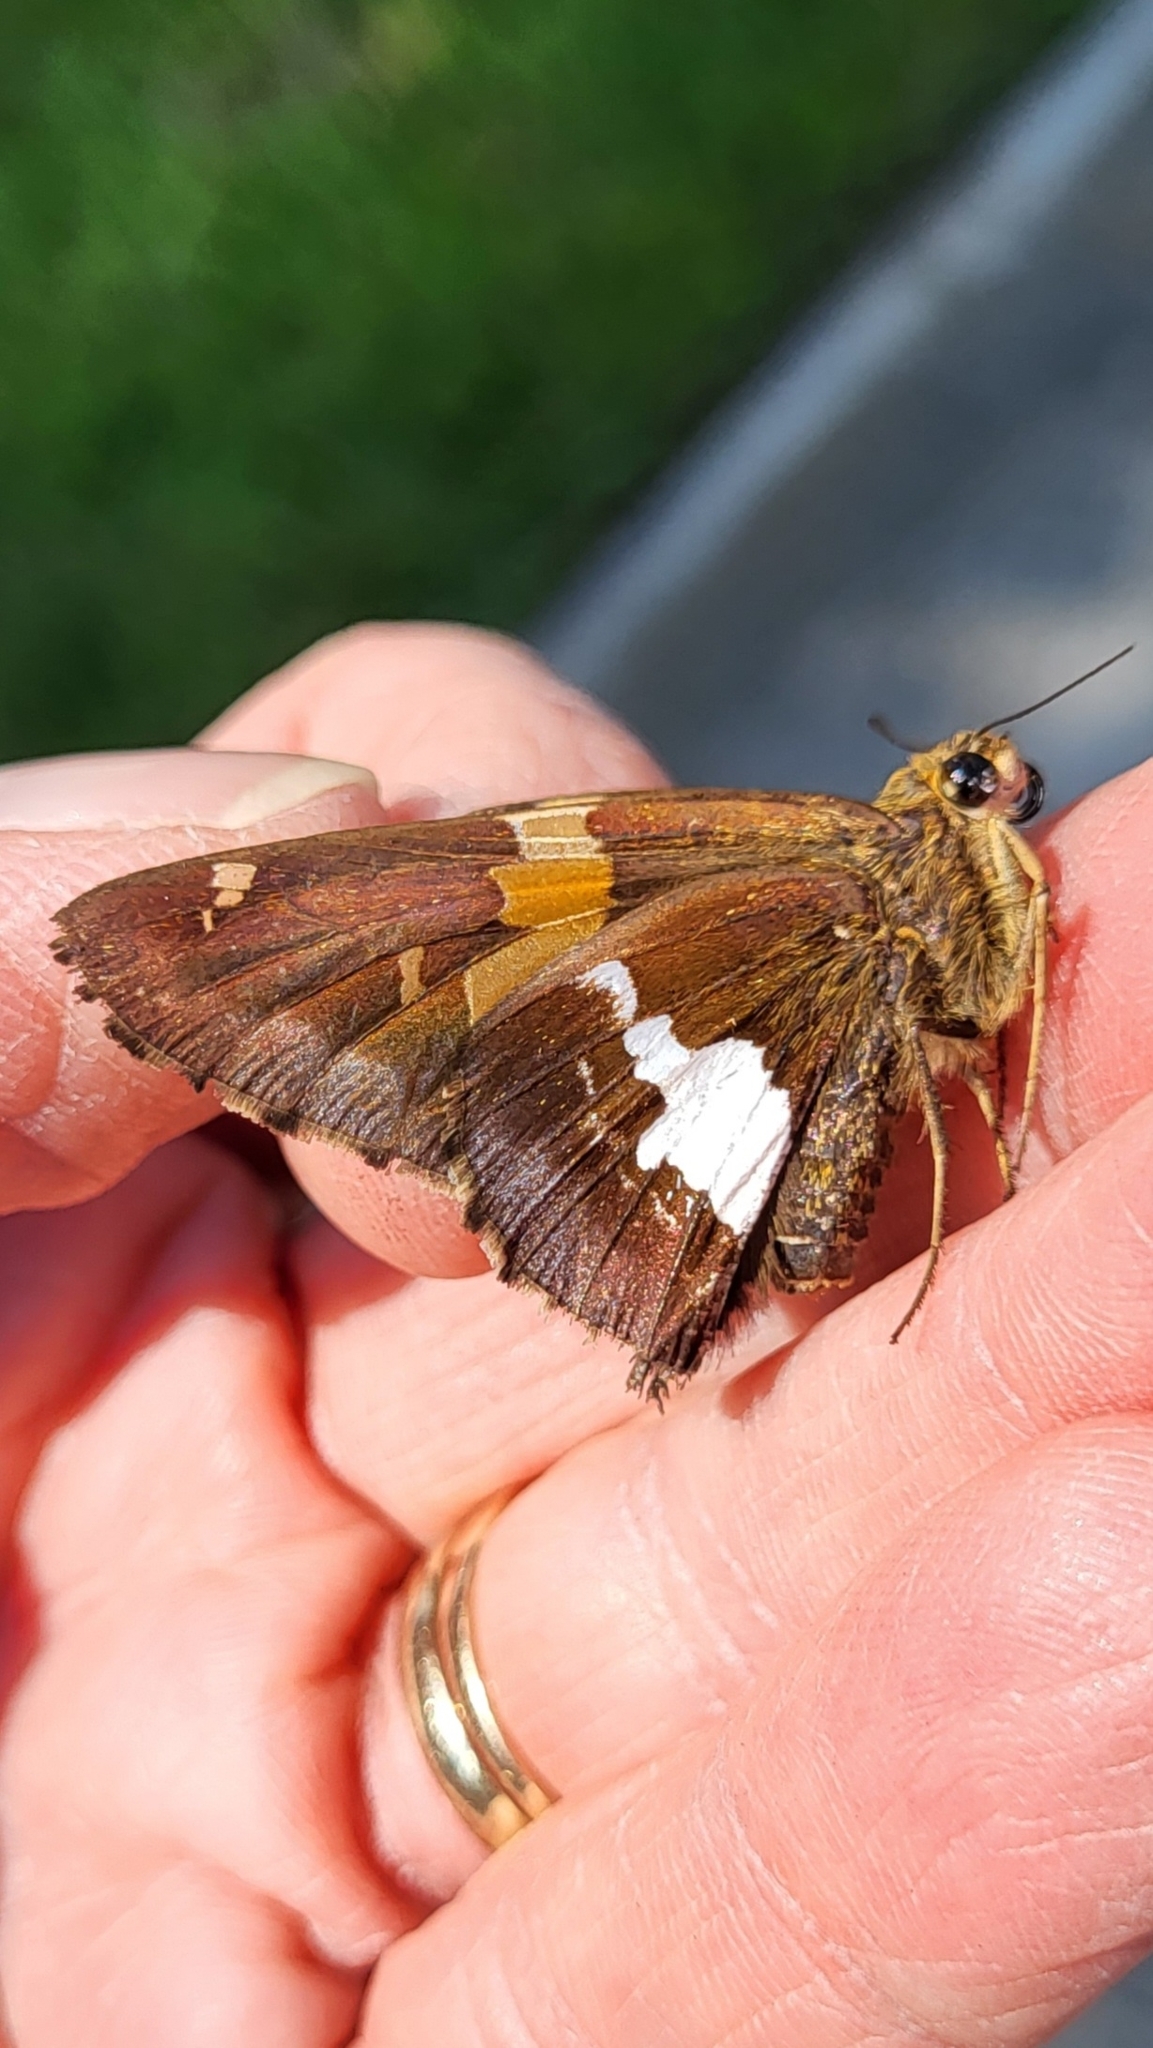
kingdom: Animalia
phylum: Arthropoda
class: Insecta
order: Lepidoptera
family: Hesperiidae
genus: Epargyreus
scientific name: Epargyreus clarus
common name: Silver-spotted skipper
